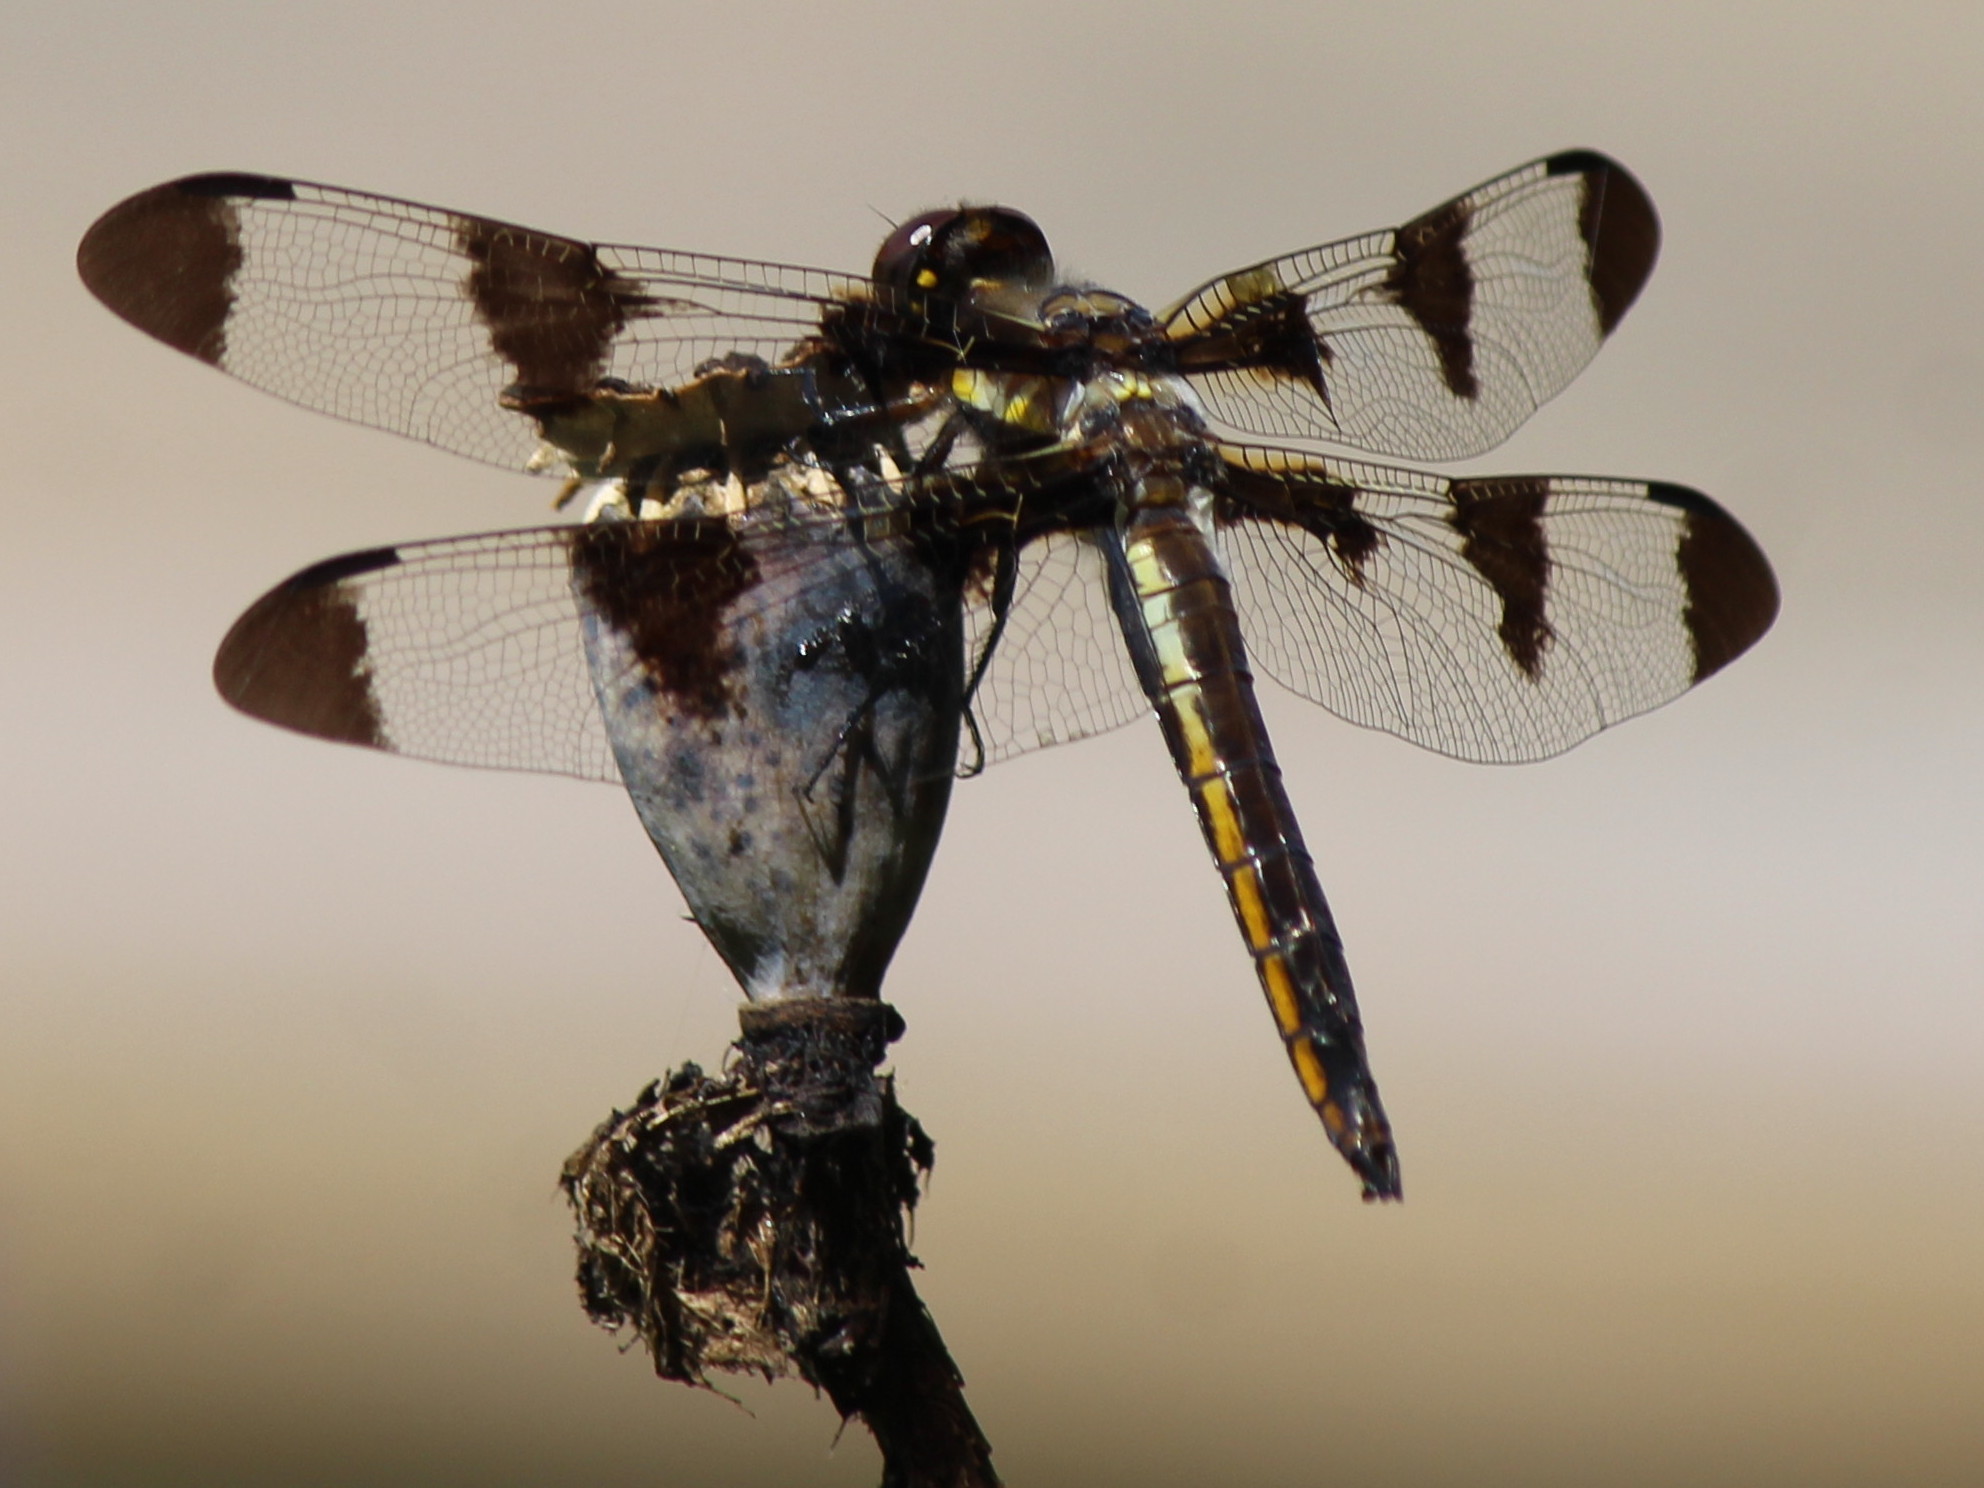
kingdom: Animalia
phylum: Arthropoda
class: Insecta
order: Odonata
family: Libellulidae
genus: Libellula
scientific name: Libellula pulchella
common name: Twelve-spotted skimmer
